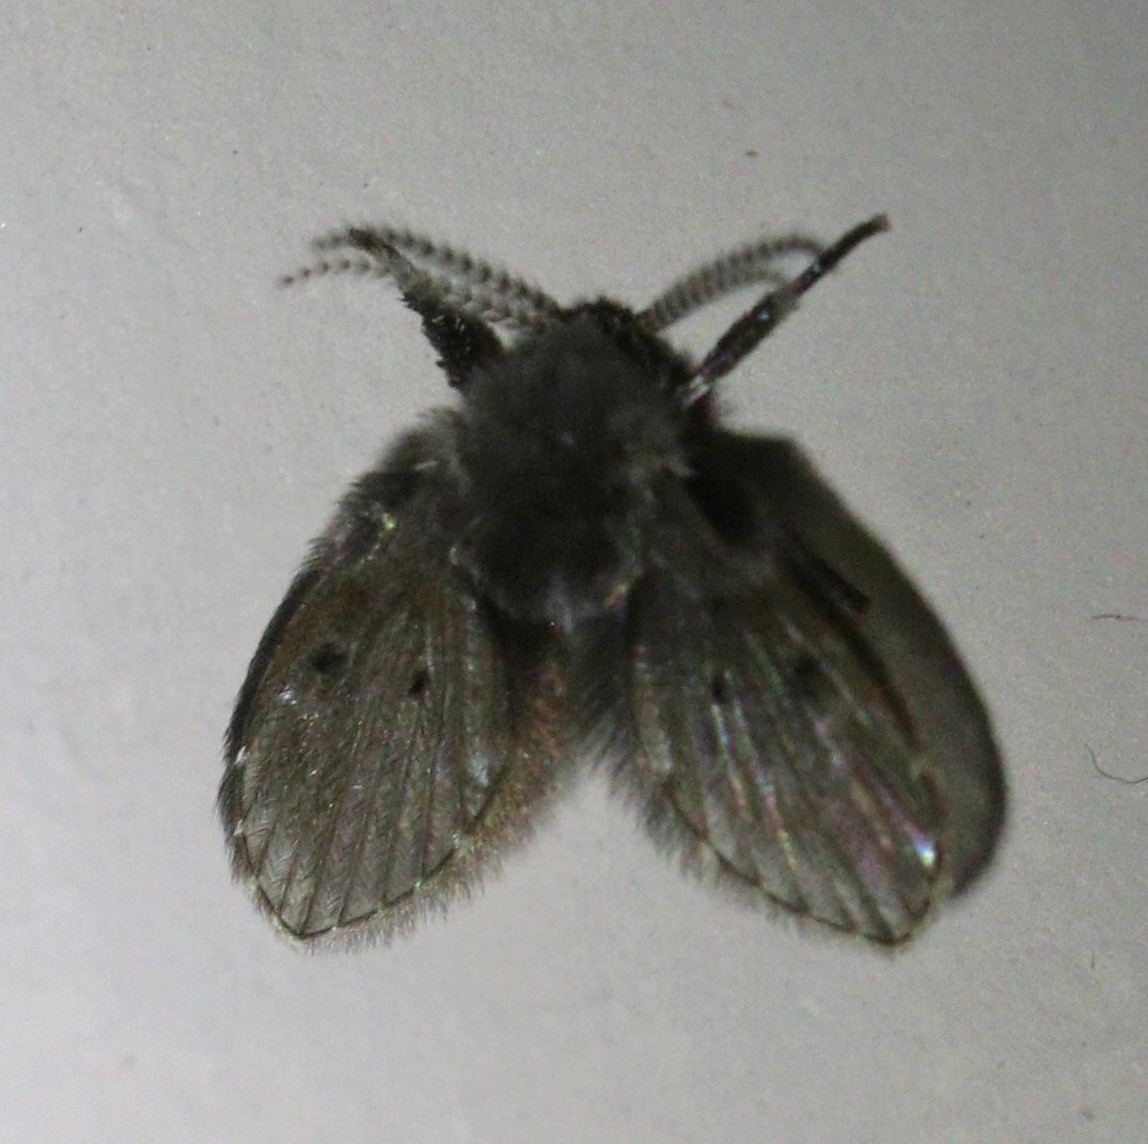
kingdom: Animalia
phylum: Arthropoda
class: Insecta
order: Diptera
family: Psychodidae
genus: Clogmia
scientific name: Clogmia albipunctatus
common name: White-spotted moth fly
